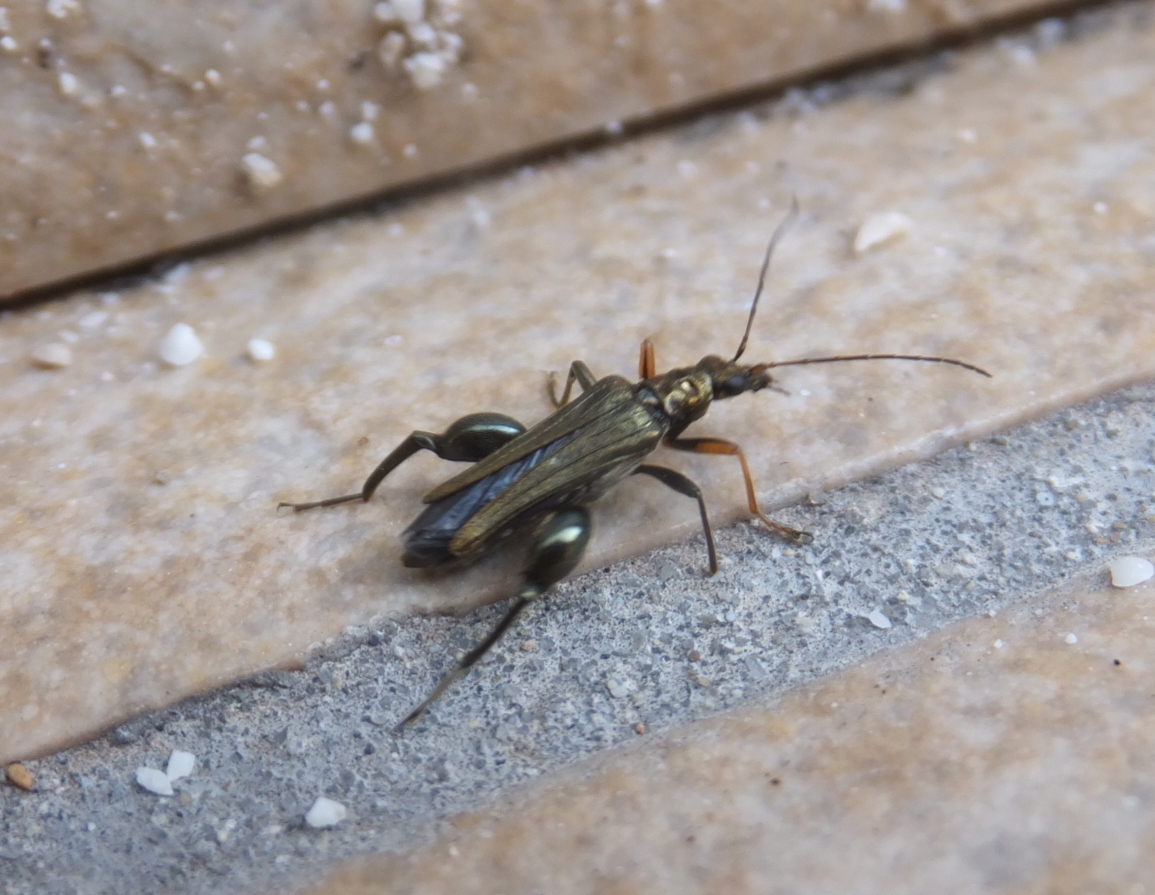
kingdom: Animalia
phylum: Arthropoda
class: Insecta
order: Coleoptera
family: Oedemeridae
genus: Oedemera
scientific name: Oedemera flavipes
